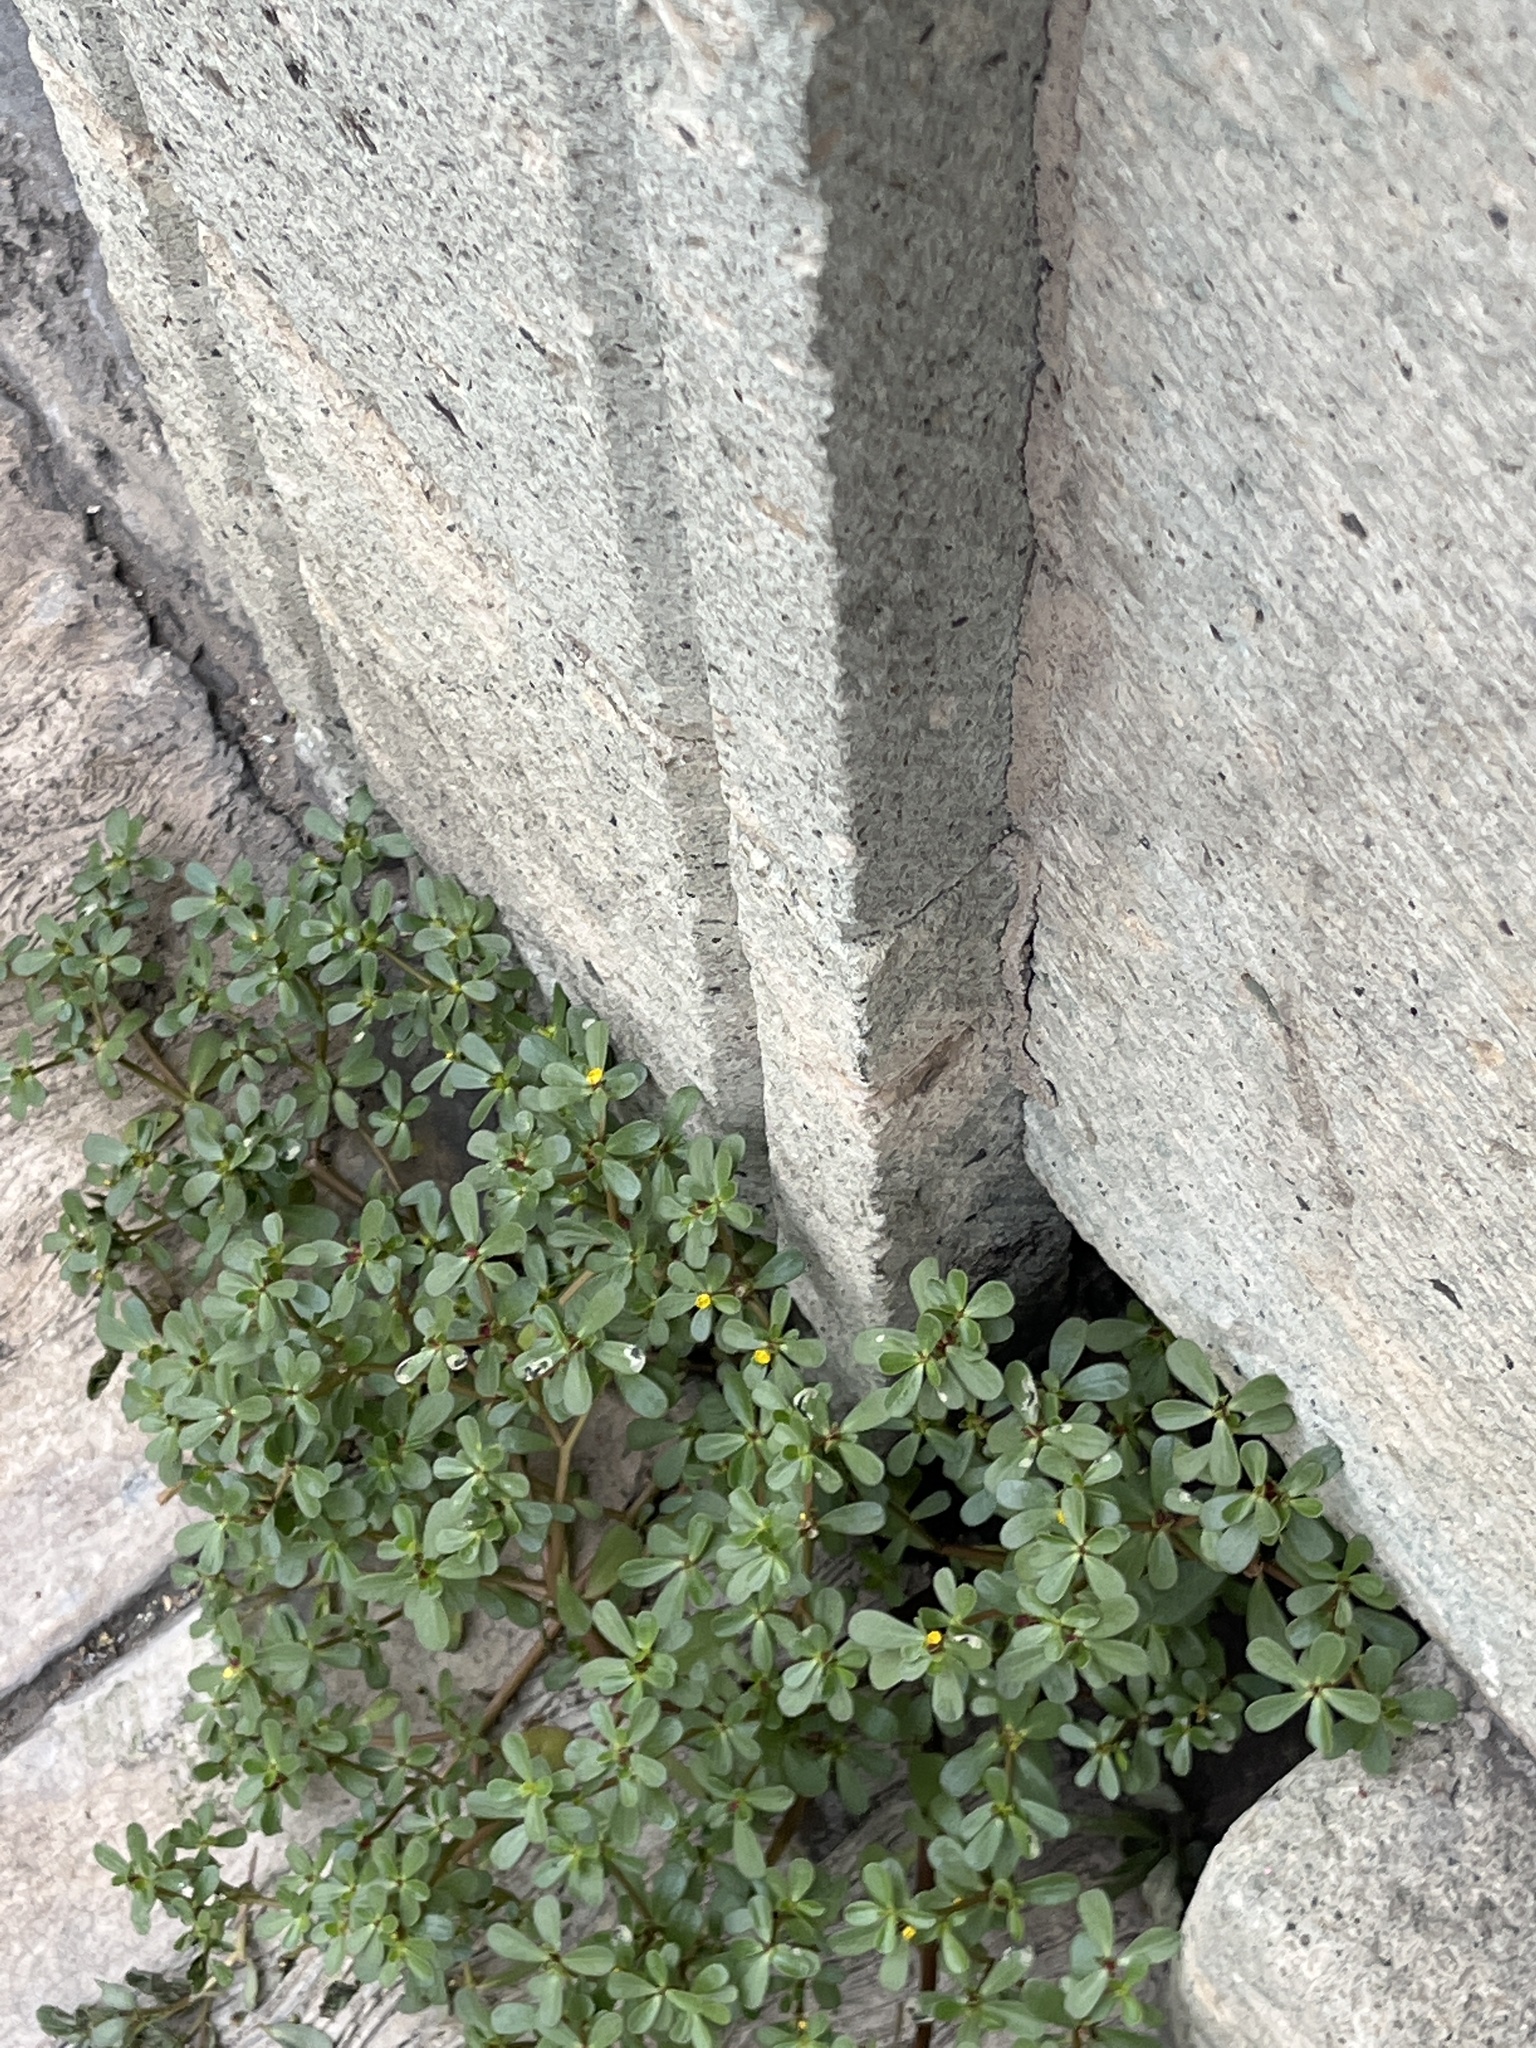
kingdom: Plantae
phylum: Tracheophyta
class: Magnoliopsida
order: Caryophyllales
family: Portulacaceae
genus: Portulaca
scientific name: Portulaca oleracea
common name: Common purslane
